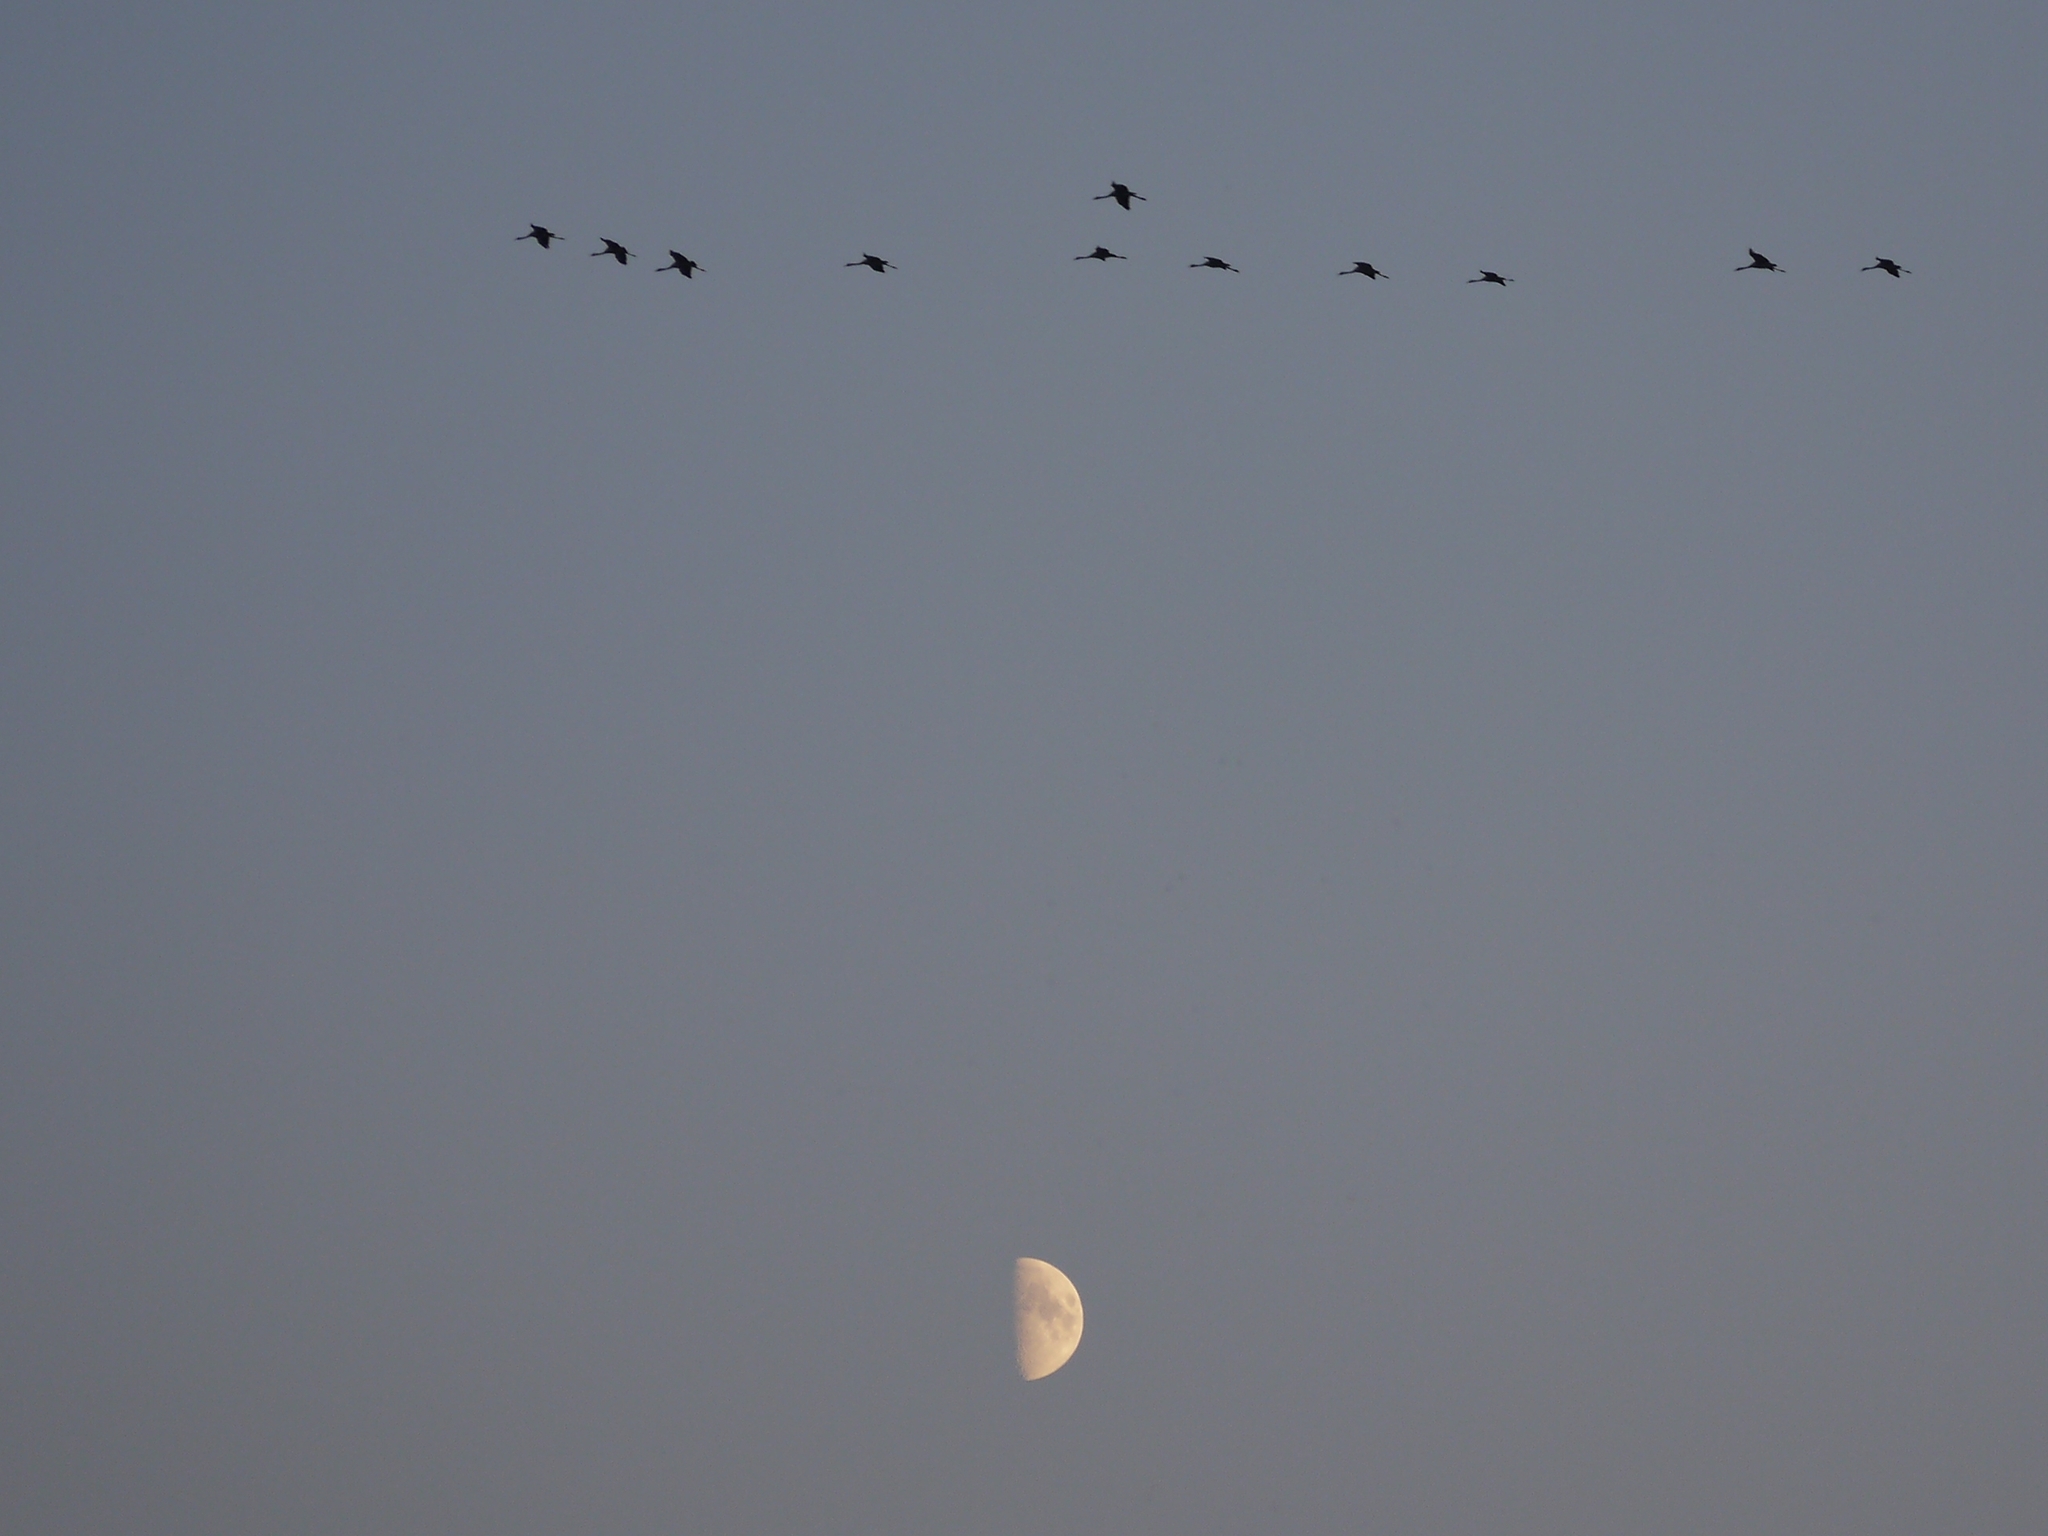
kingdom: Animalia
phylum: Chordata
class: Aves
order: Gruiformes
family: Gruidae
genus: Grus
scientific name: Grus grus
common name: Common crane
